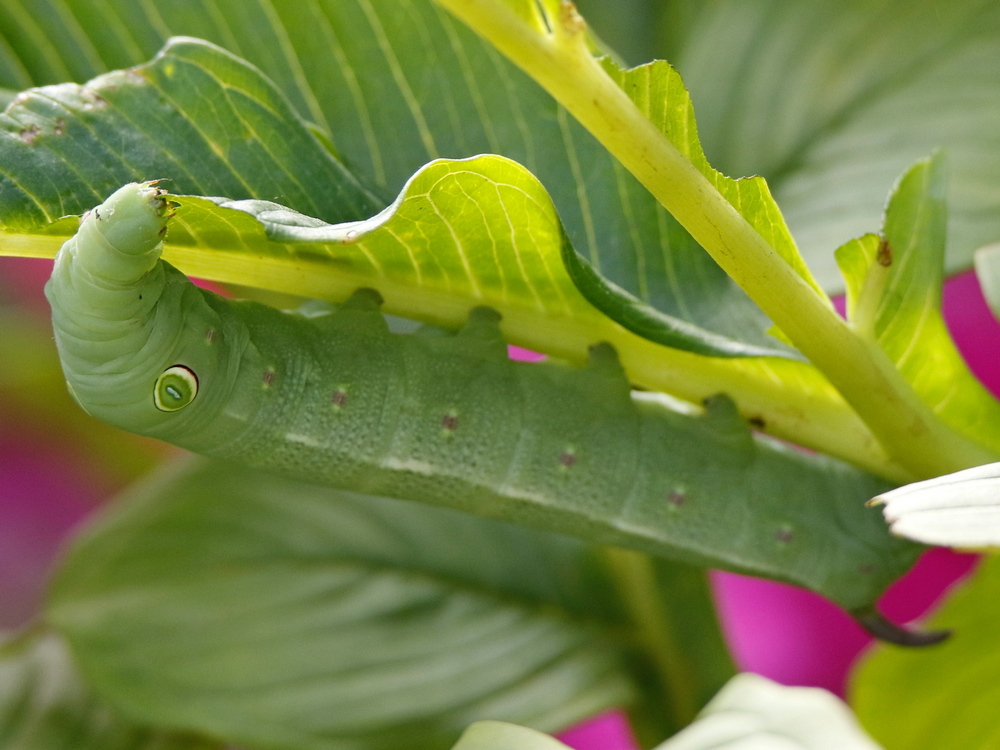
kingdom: Animalia
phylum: Arthropoda
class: Insecta
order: Lepidoptera
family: Sphingidae
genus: Theretra
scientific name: Theretra clotho
